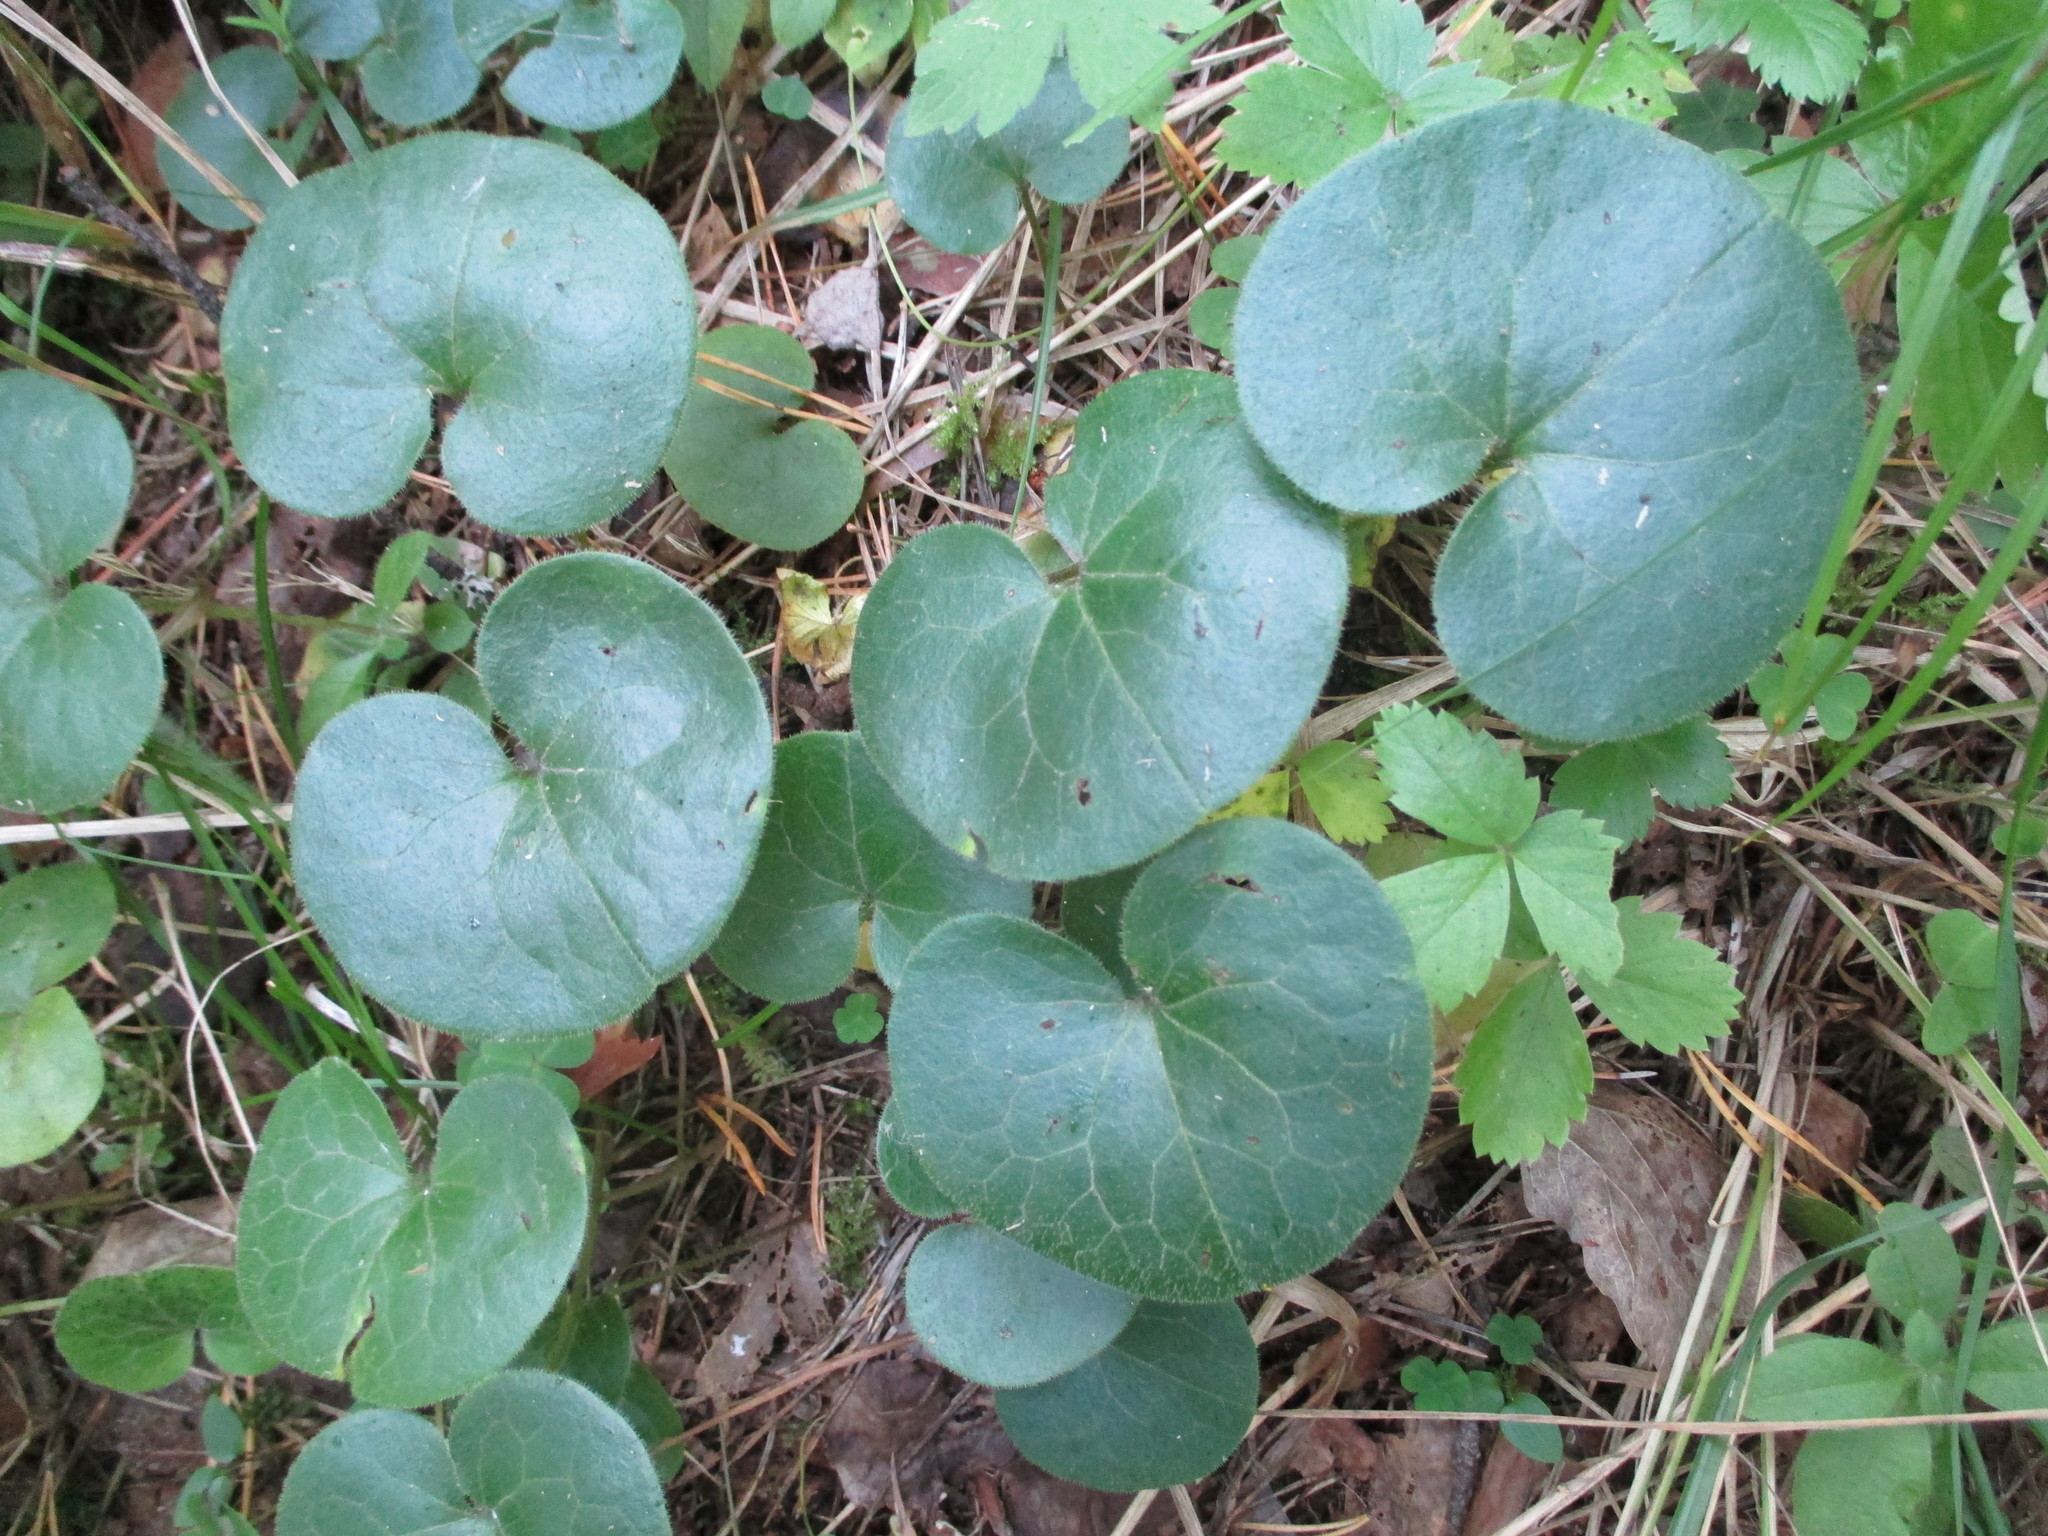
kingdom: Plantae
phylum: Tracheophyta
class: Magnoliopsida
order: Piperales
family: Aristolochiaceae
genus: Asarum
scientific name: Asarum europaeum
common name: Asarabacca
